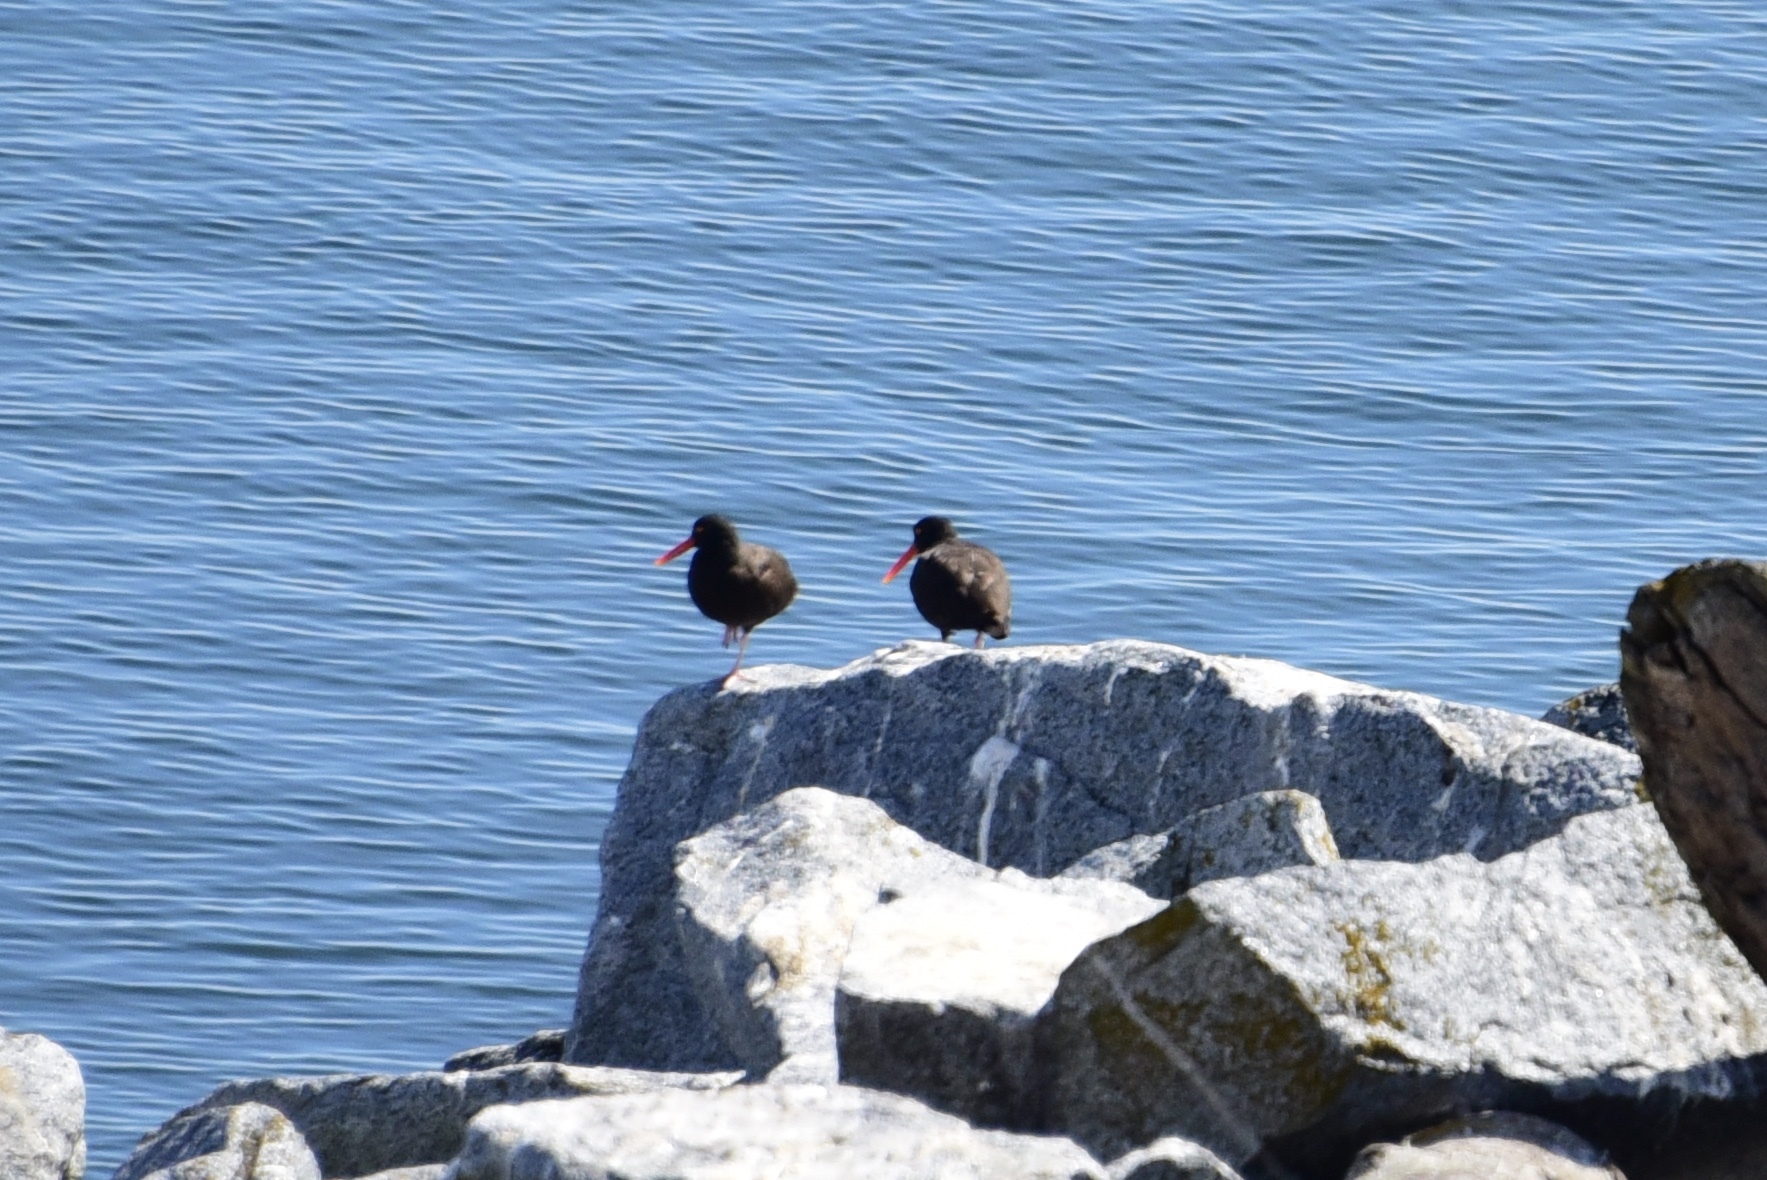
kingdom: Animalia
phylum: Chordata
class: Aves
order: Charadriiformes
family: Haematopodidae
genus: Haematopus
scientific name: Haematopus bachmani
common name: Black oystercatcher
